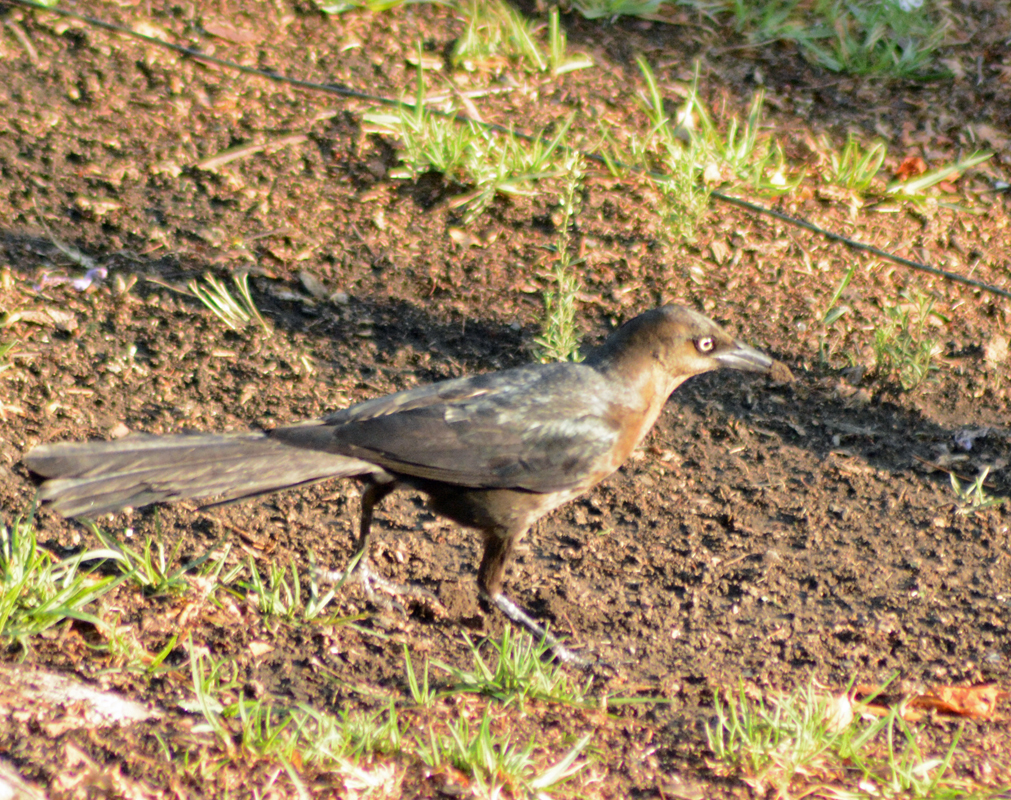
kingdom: Animalia
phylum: Chordata
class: Aves
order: Passeriformes
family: Icteridae
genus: Quiscalus
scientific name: Quiscalus mexicanus
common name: Great-tailed grackle
